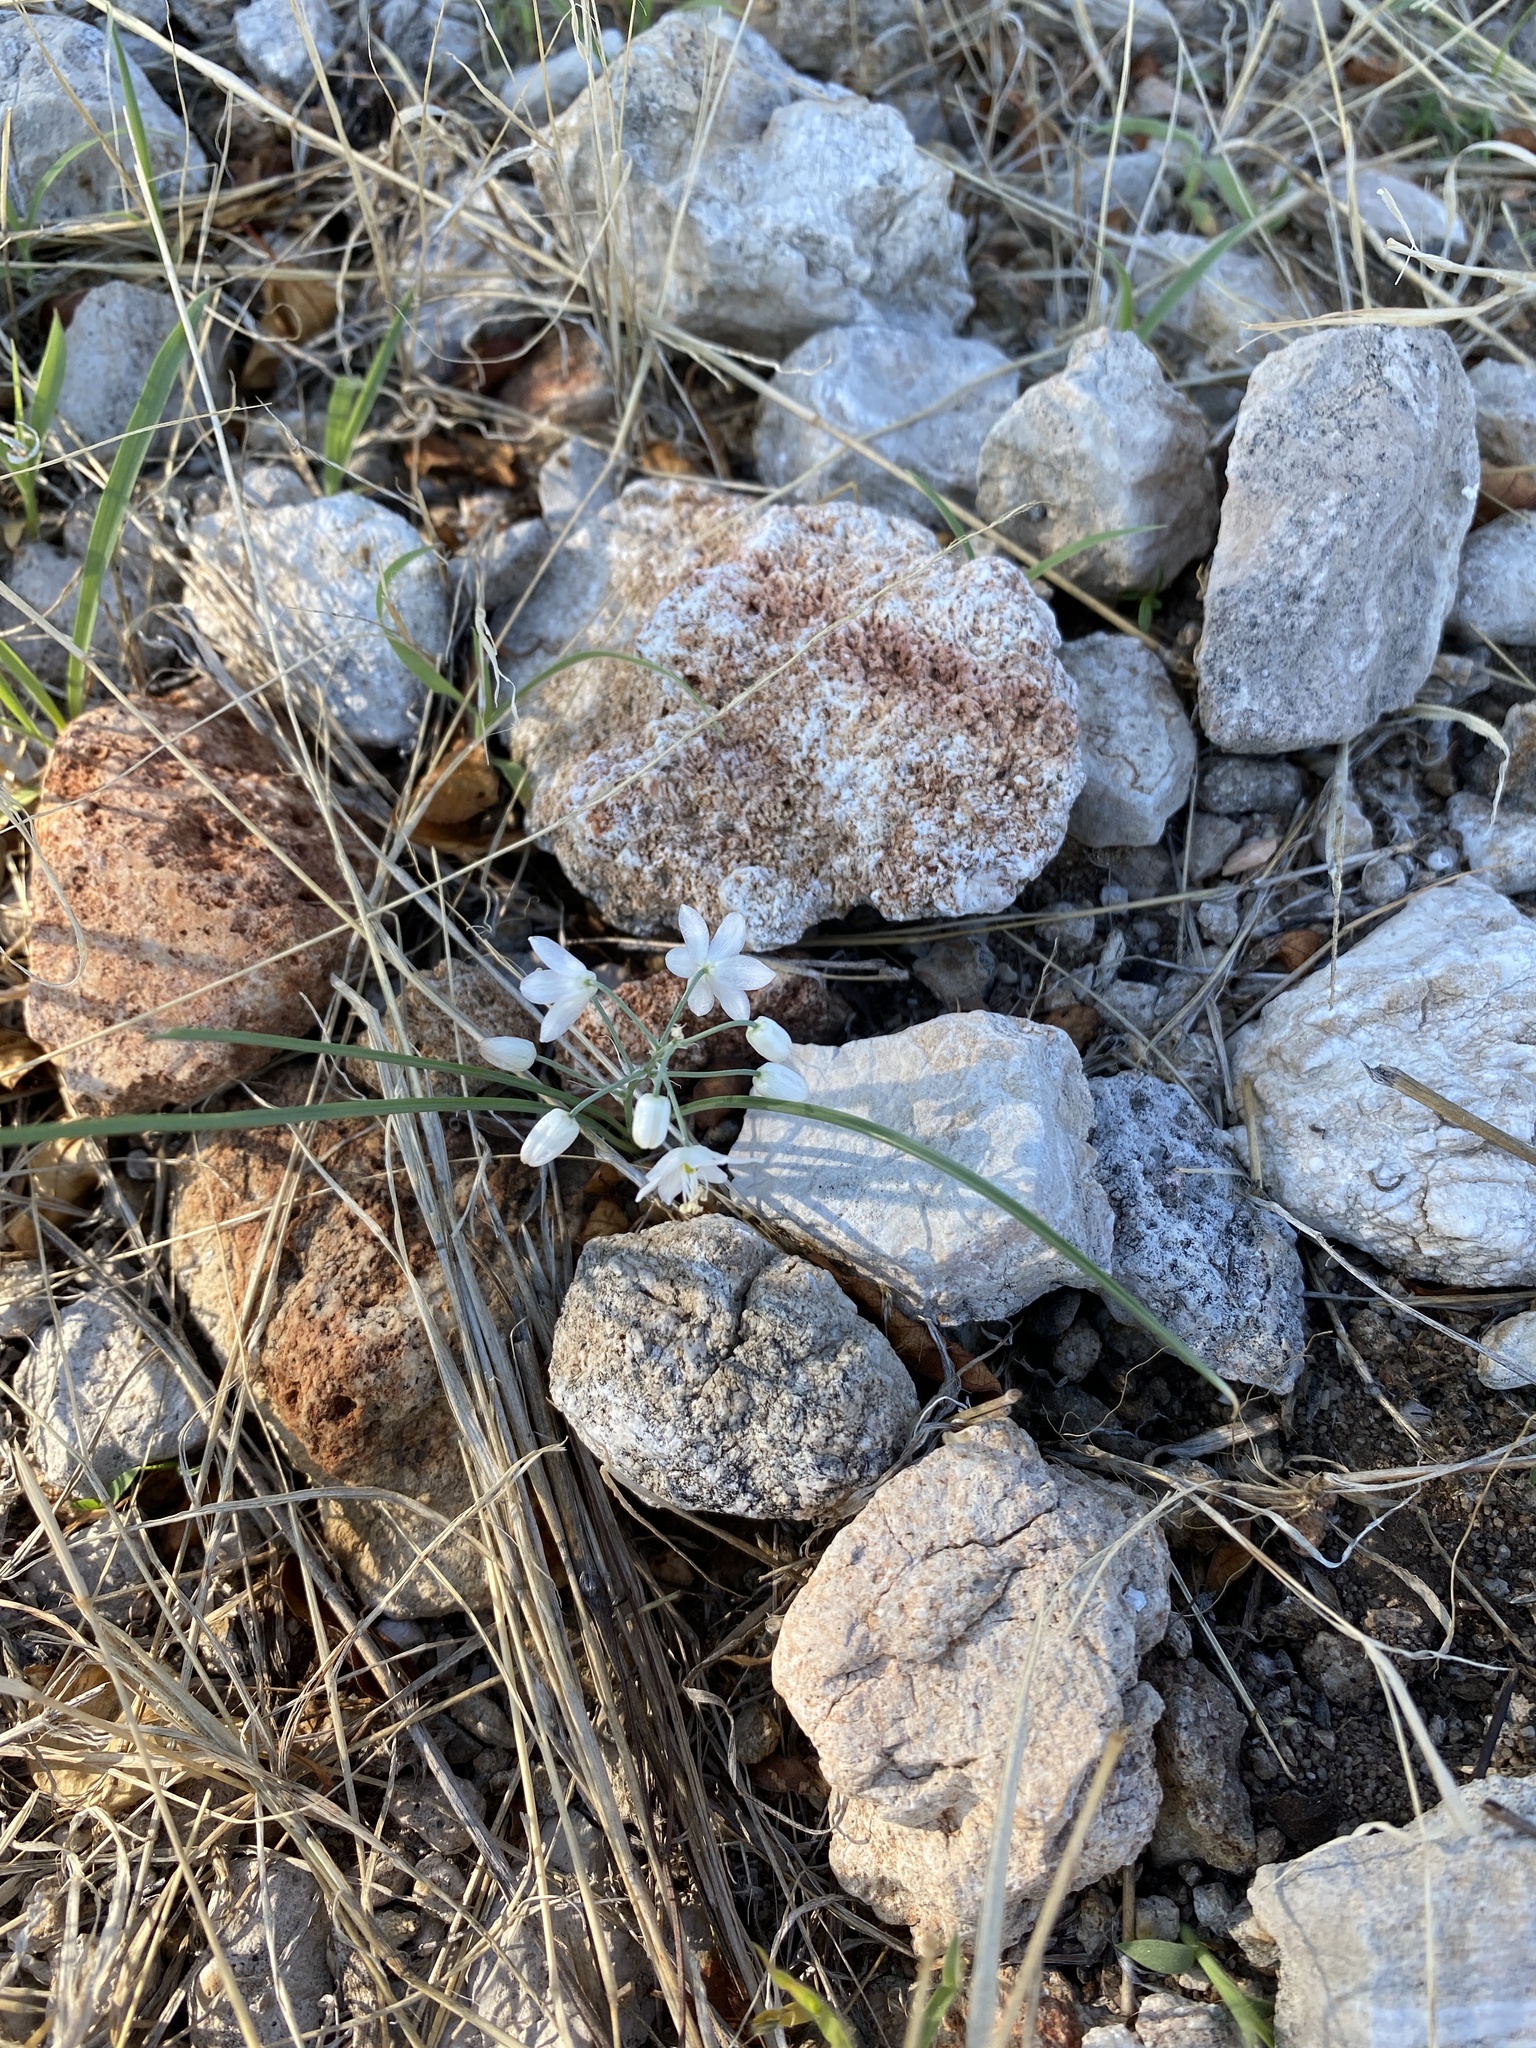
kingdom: Plantae
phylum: Tracheophyta
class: Liliopsida
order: Asparagales
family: Asparagaceae
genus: Albuca
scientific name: Albuca stapffii
